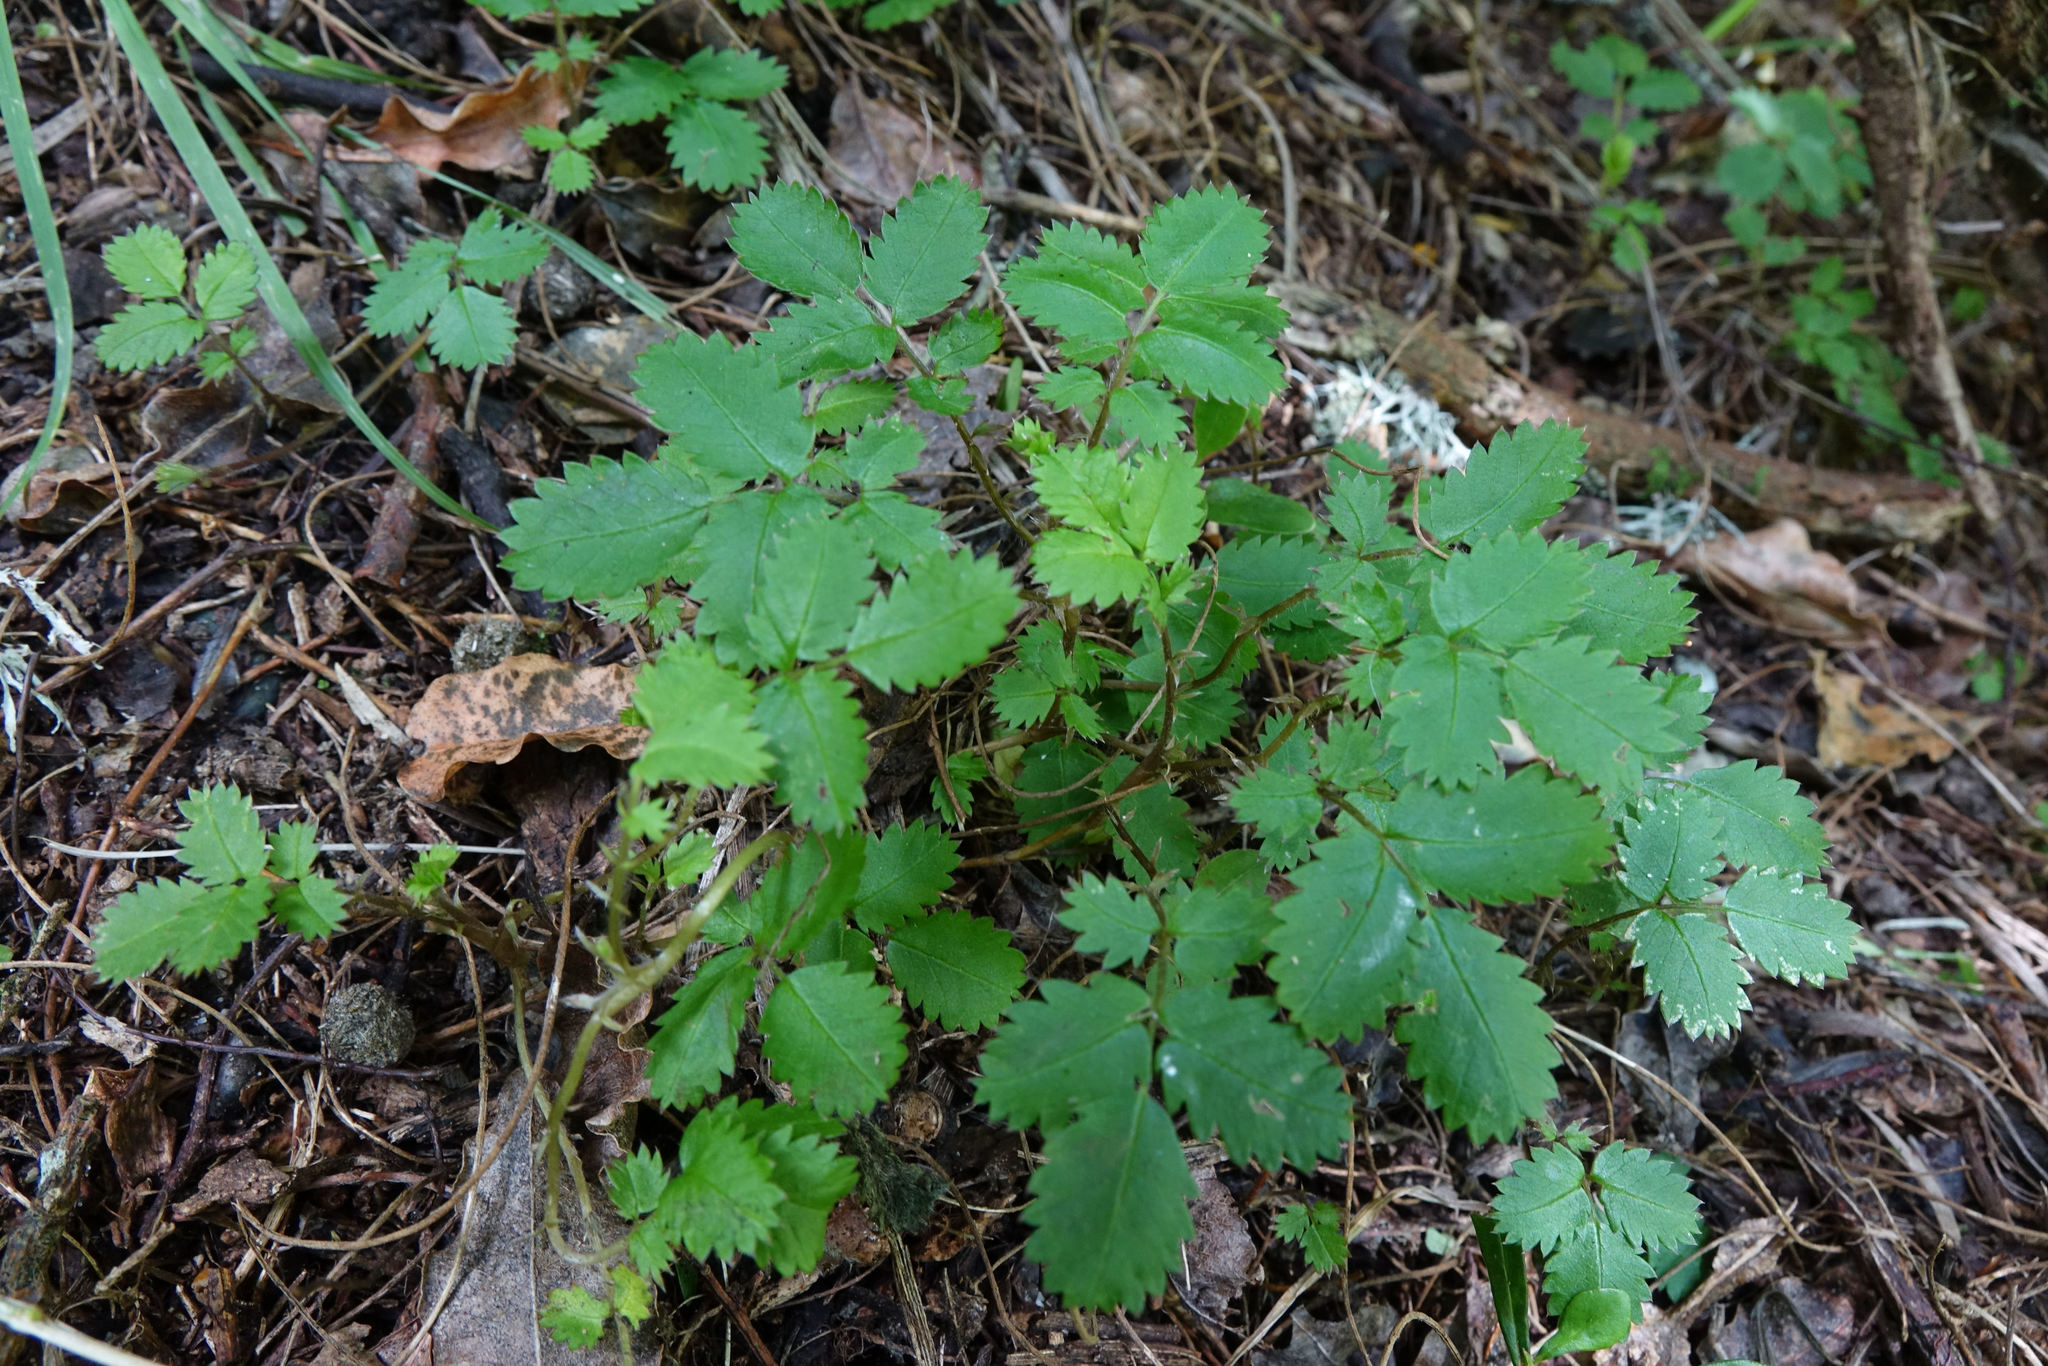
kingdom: Plantae
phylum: Tracheophyta
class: Magnoliopsida
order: Rosales
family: Rosaceae
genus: Acaena
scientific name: Acaena juvenca
